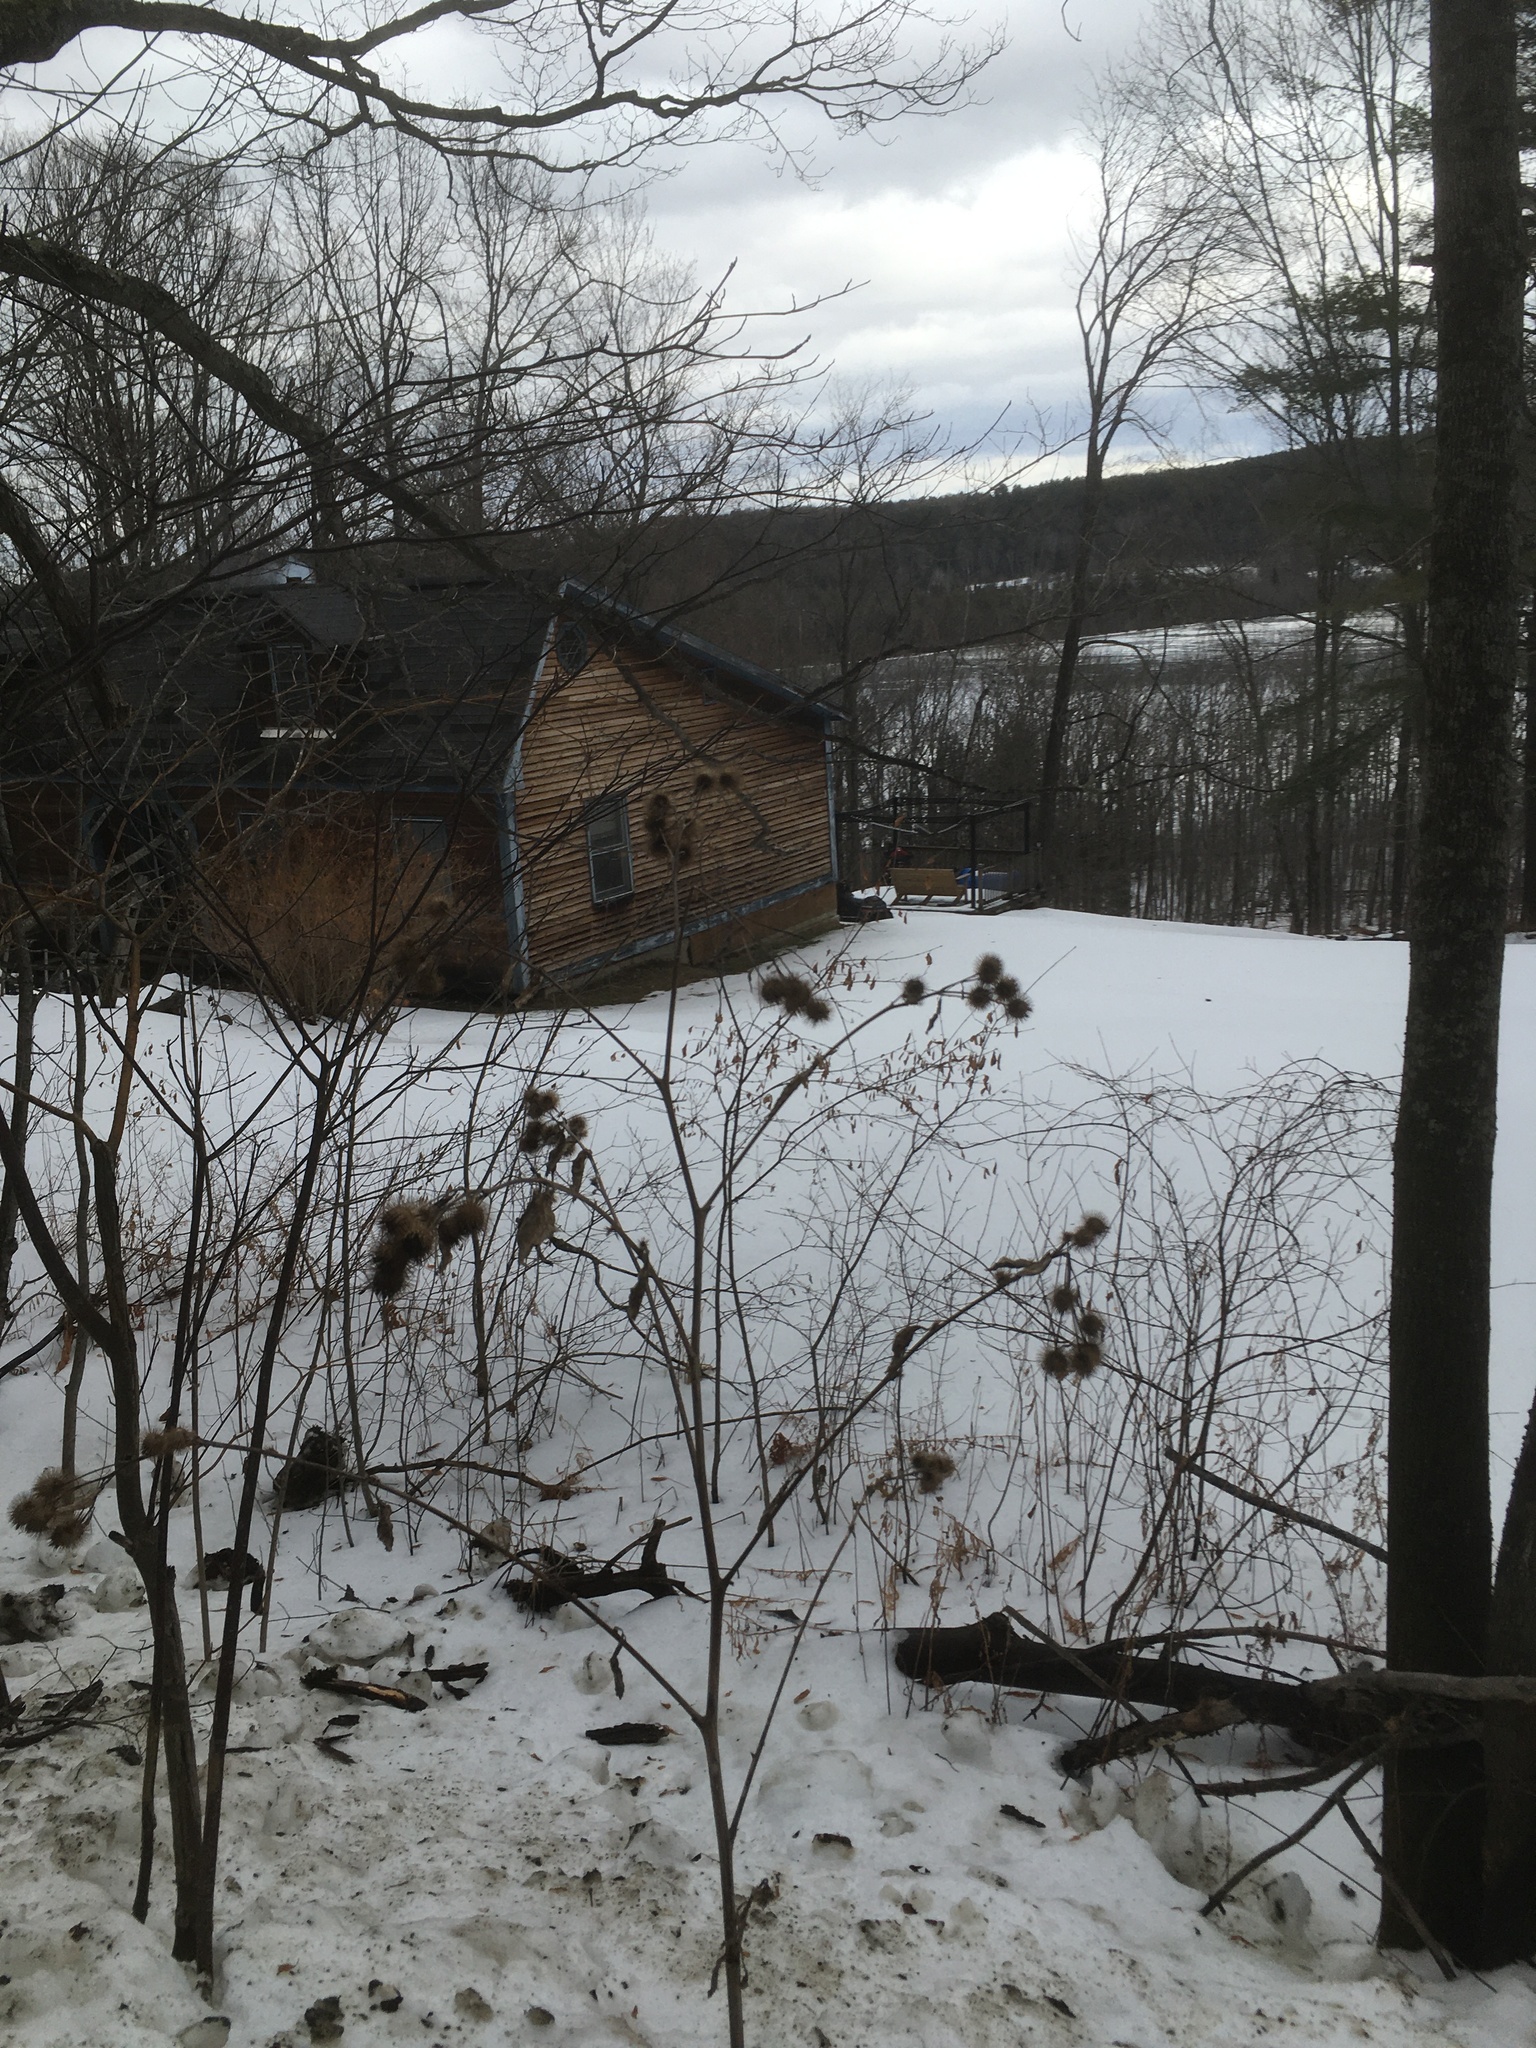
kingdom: Plantae
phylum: Tracheophyta
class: Magnoliopsida
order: Asterales
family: Asteraceae
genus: Arctium
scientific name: Arctium lappa
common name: Greater burdock
